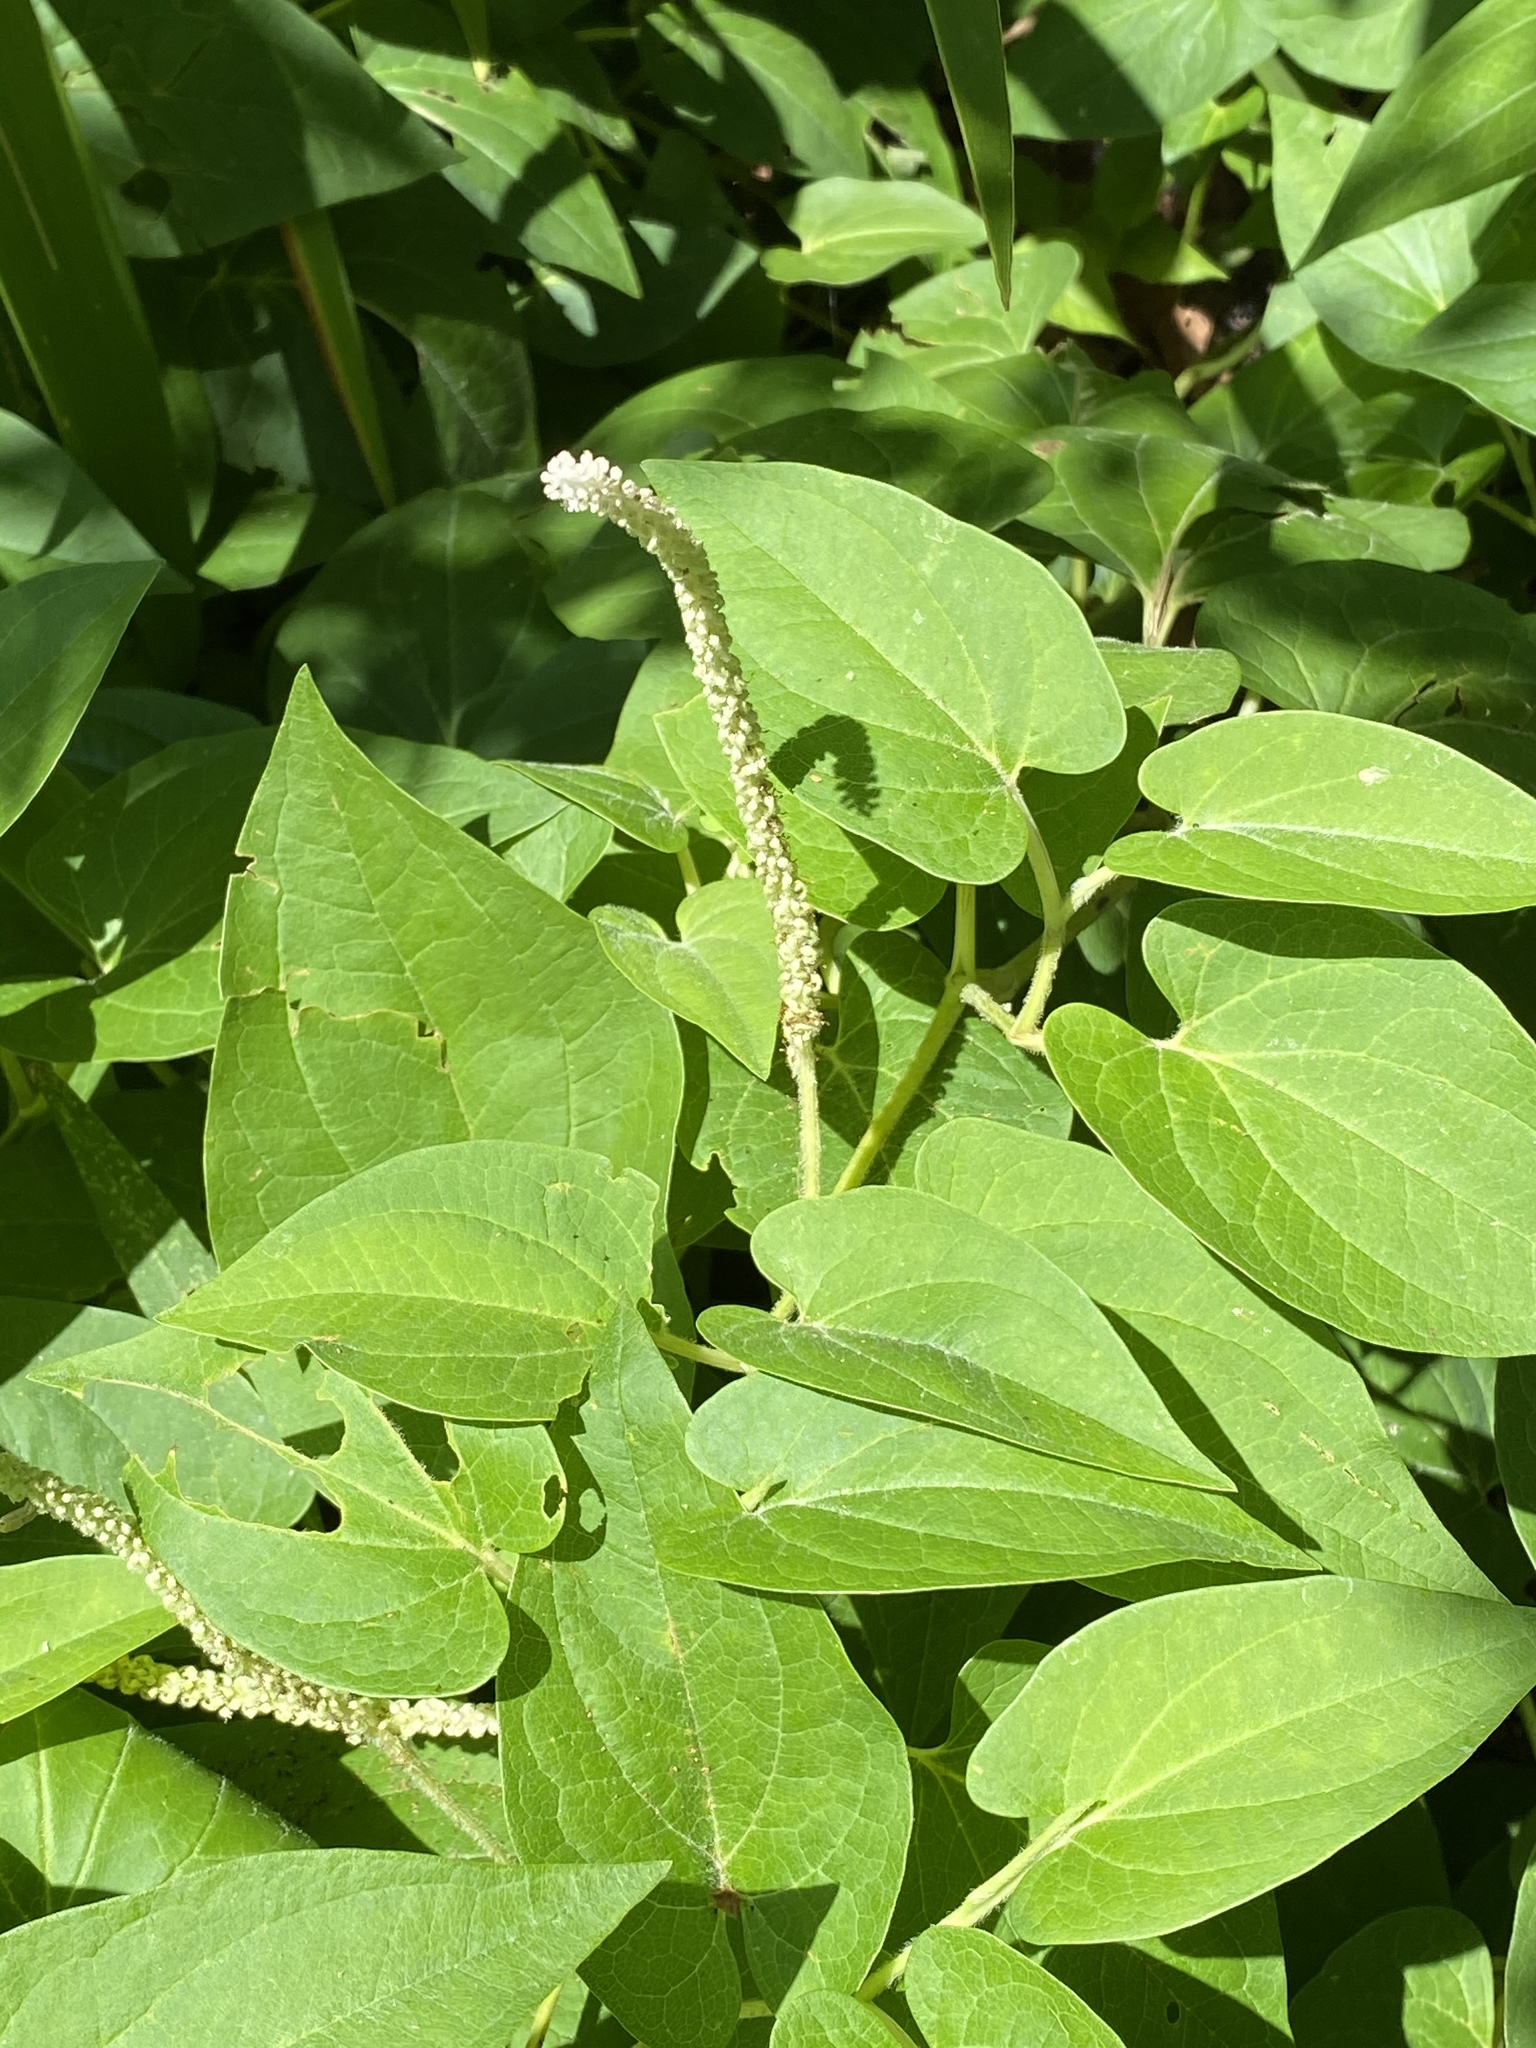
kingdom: Plantae
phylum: Tracheophyta
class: Magnoliopsida
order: Piperales
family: Saururaceae
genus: Saururus
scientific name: Saururus cernuus
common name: Lizard's-tail
